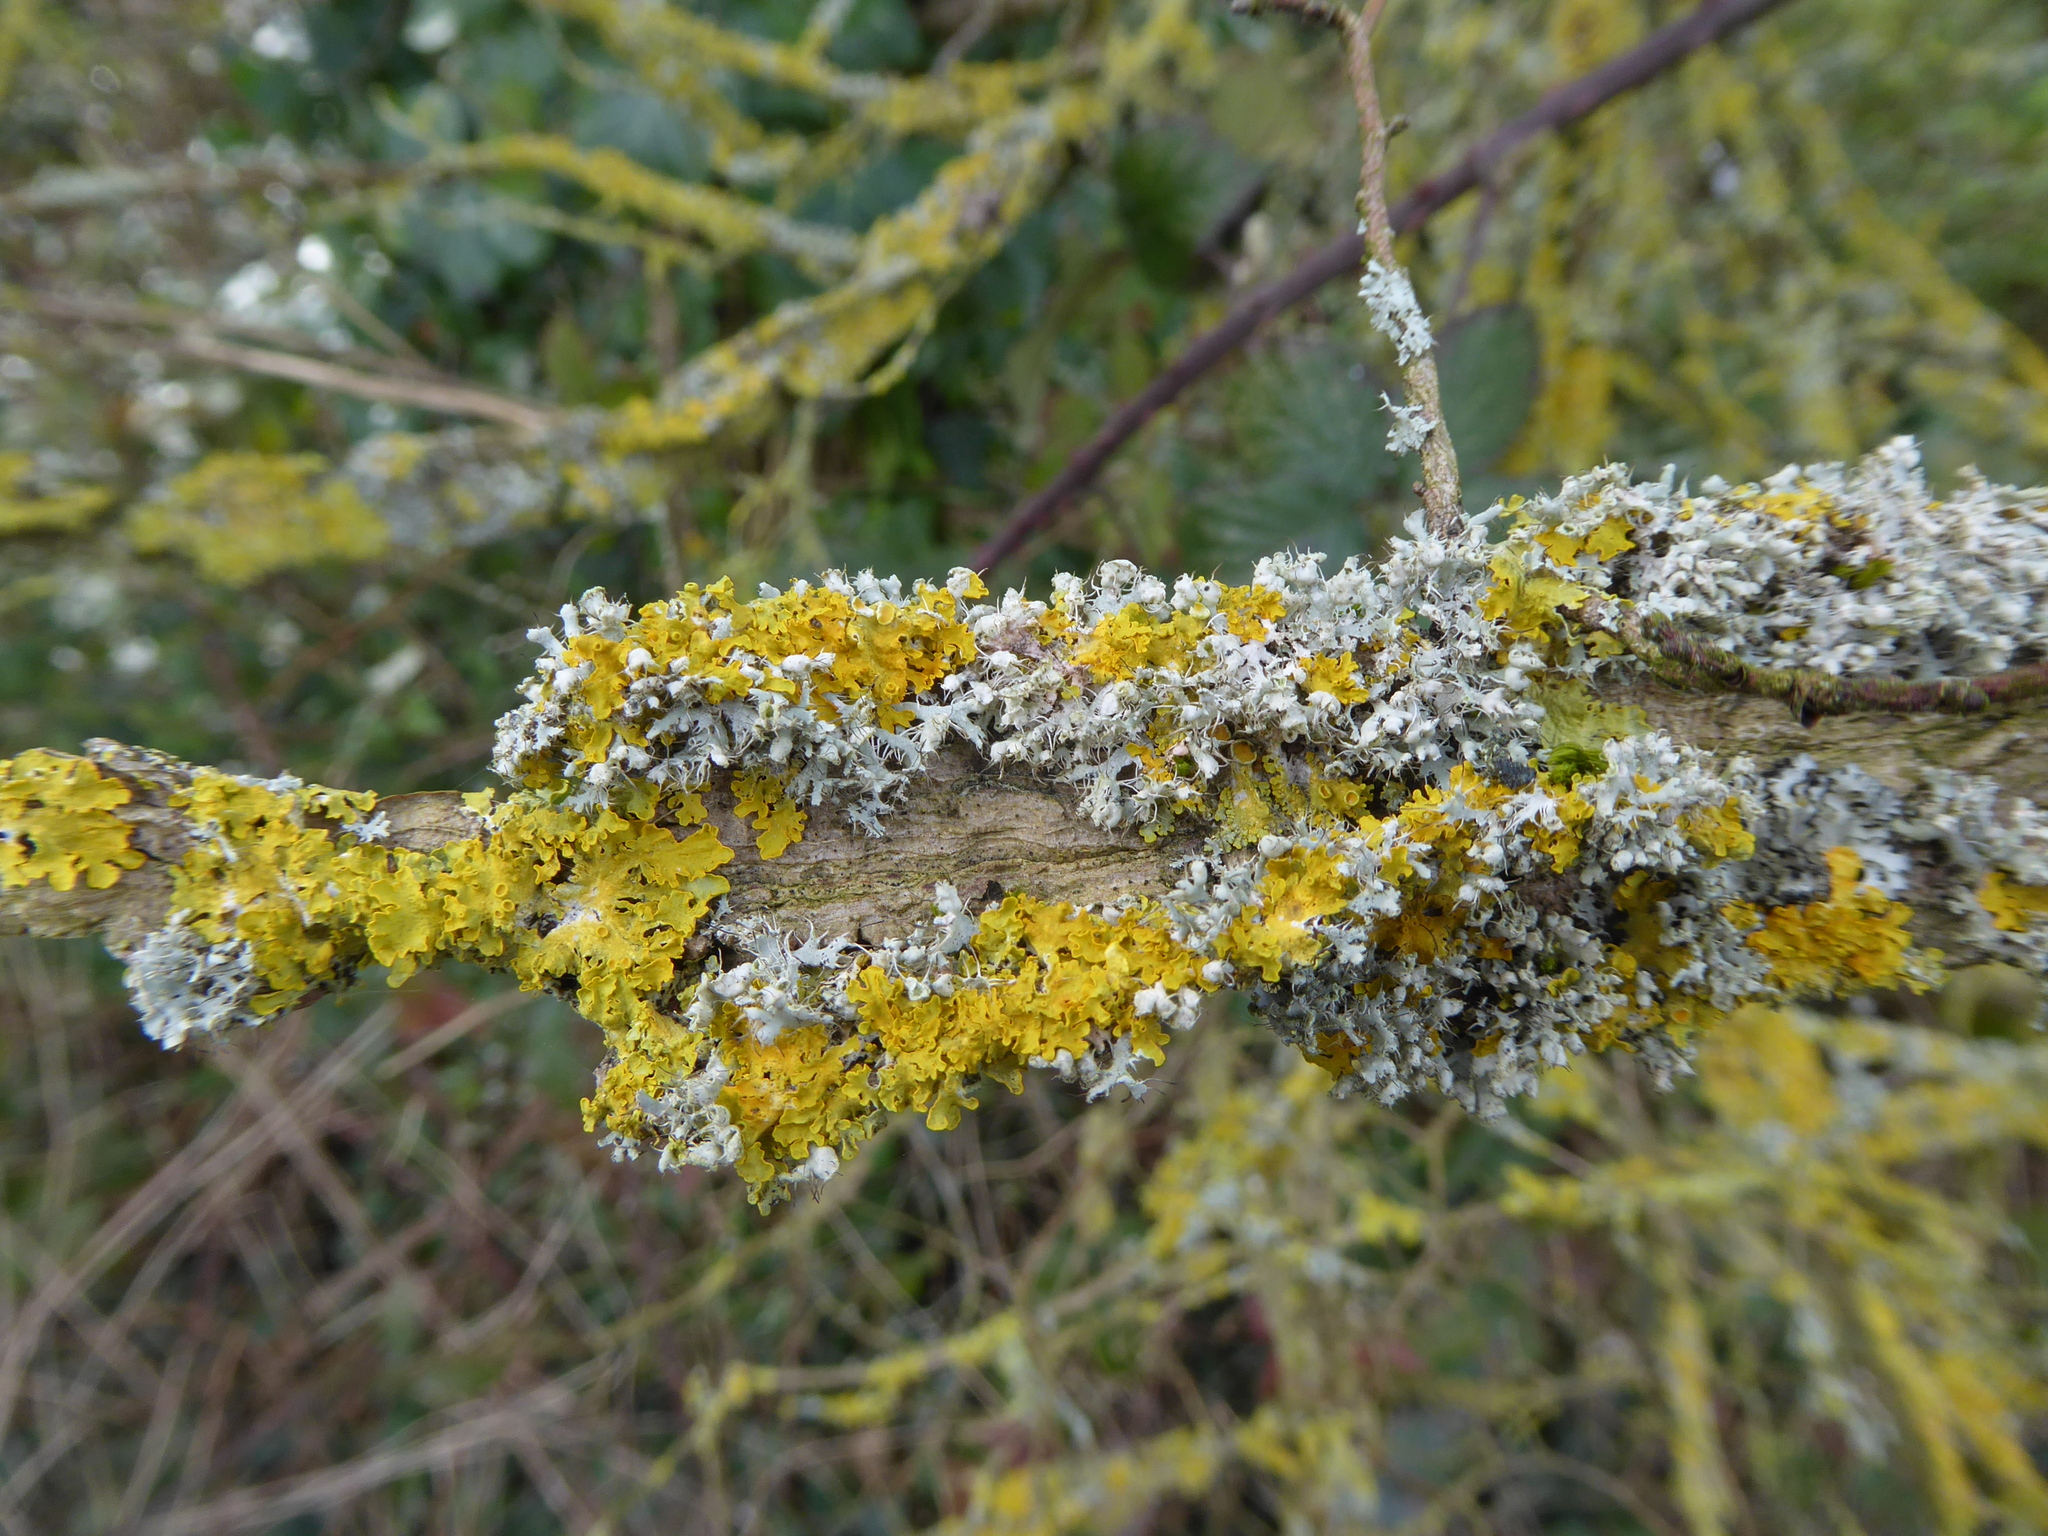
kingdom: Fungi
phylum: Ascomycota
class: Lecanoromycetes
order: Teloschistales
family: Teloschistaceae
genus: Xanthoria
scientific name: Xanthoria parietina
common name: Common orange lichen
